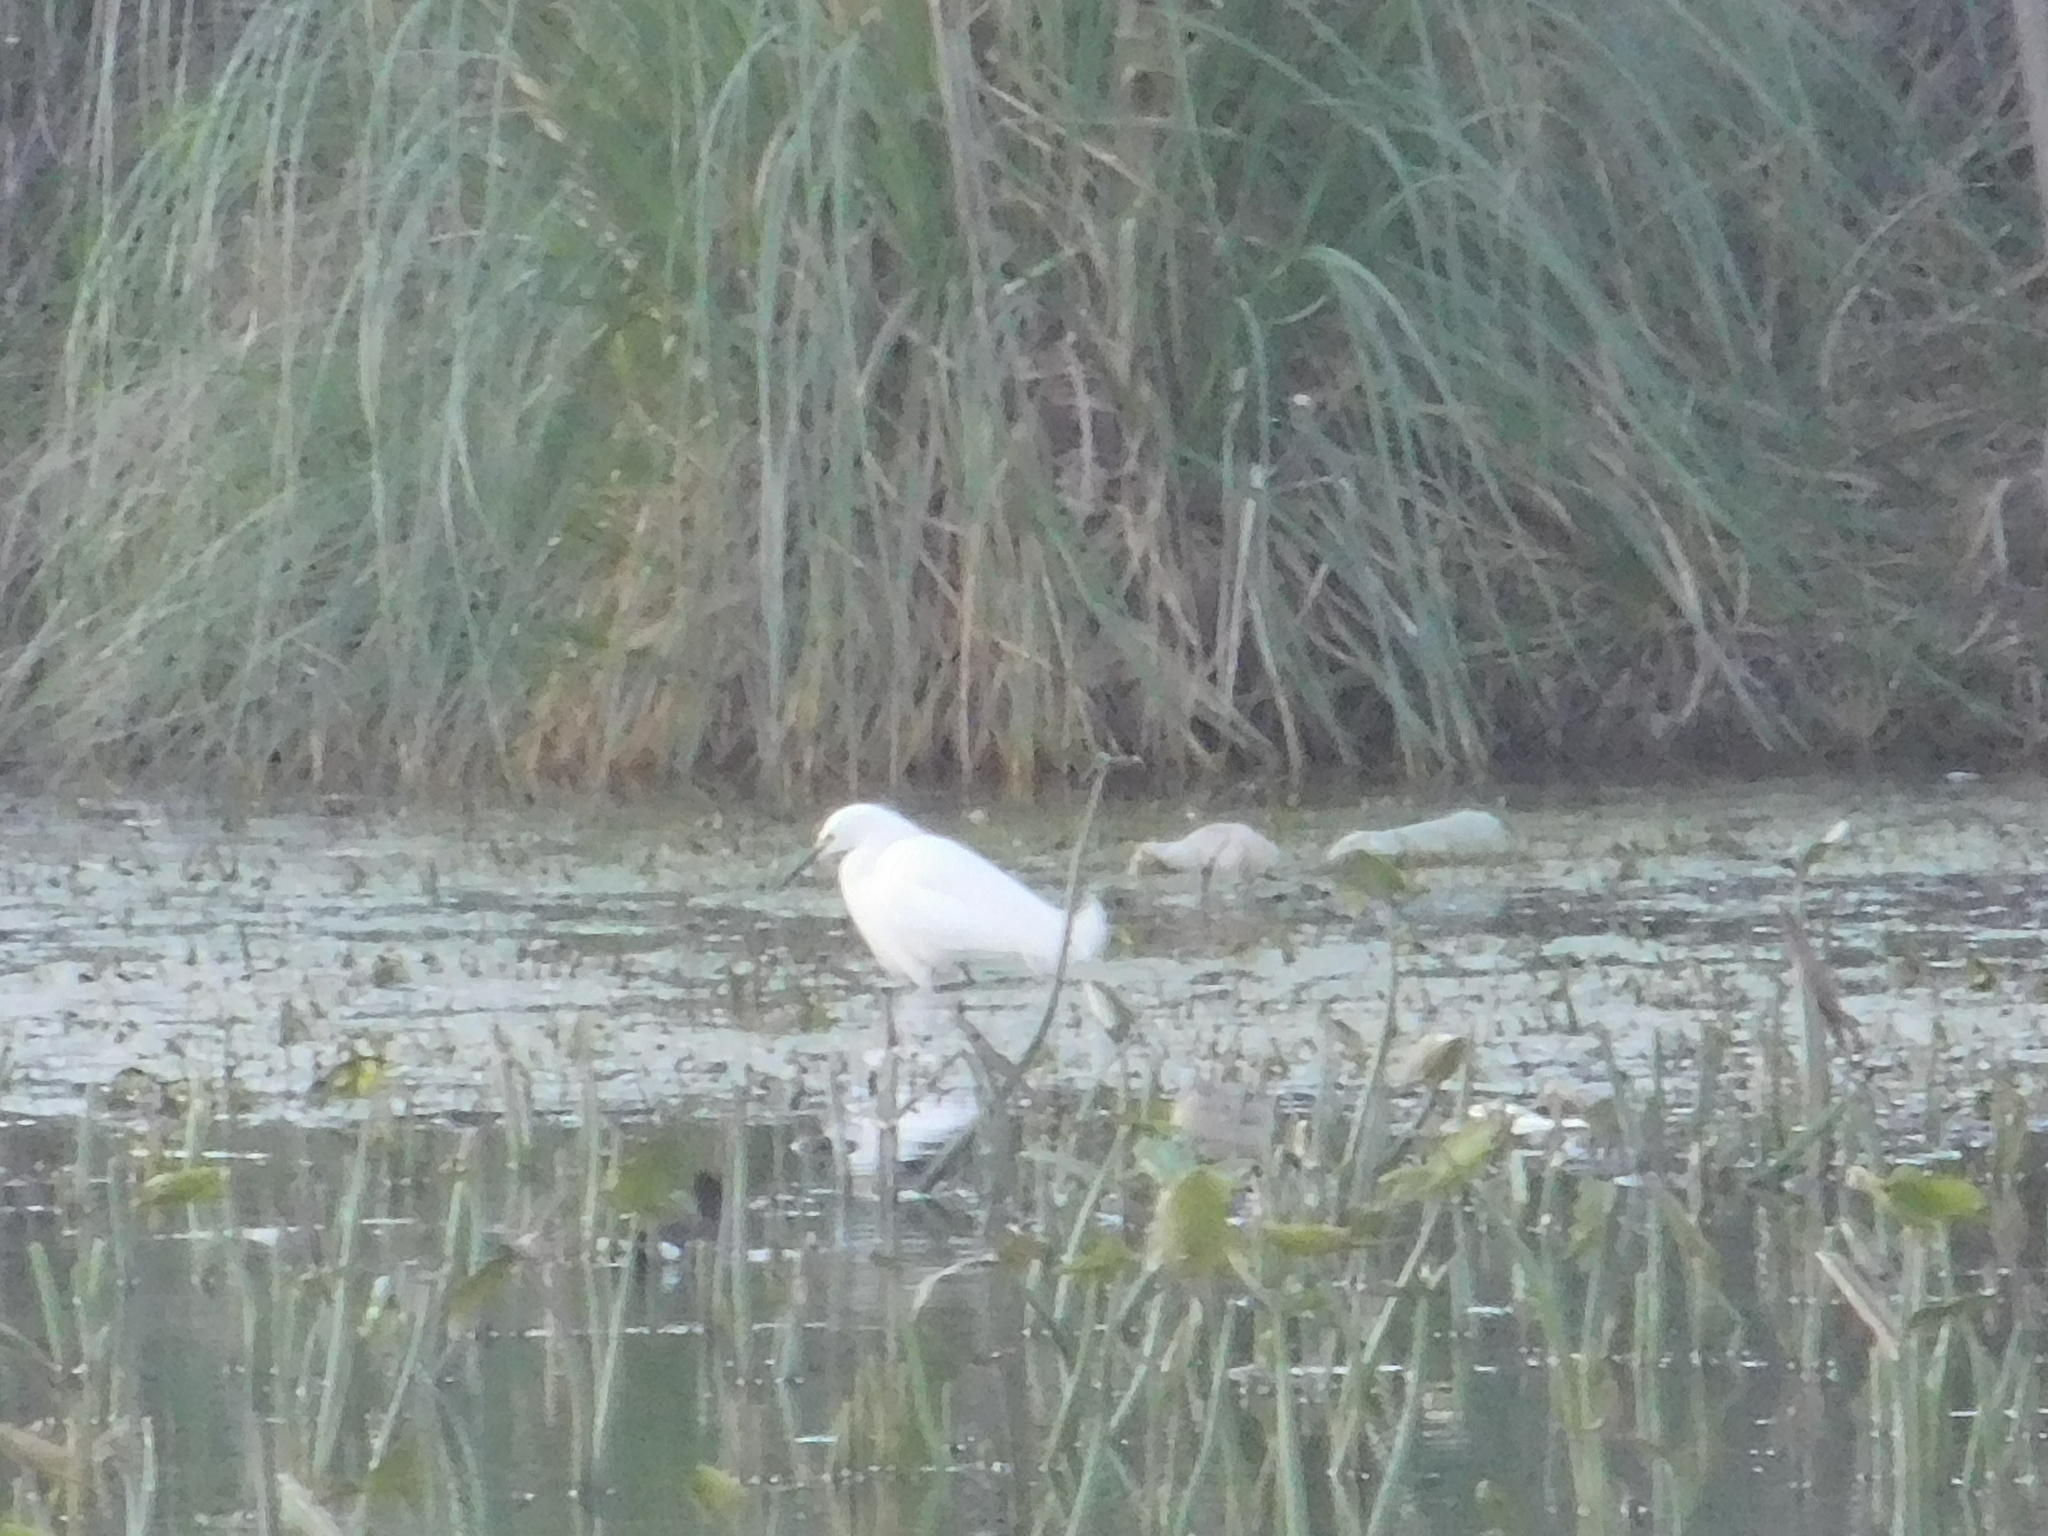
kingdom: Animalia
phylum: Chordata
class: Aves
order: Pelecaniformes
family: Ardeidae
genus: Egretta
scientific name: Egretta thula
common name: Snowy egret
